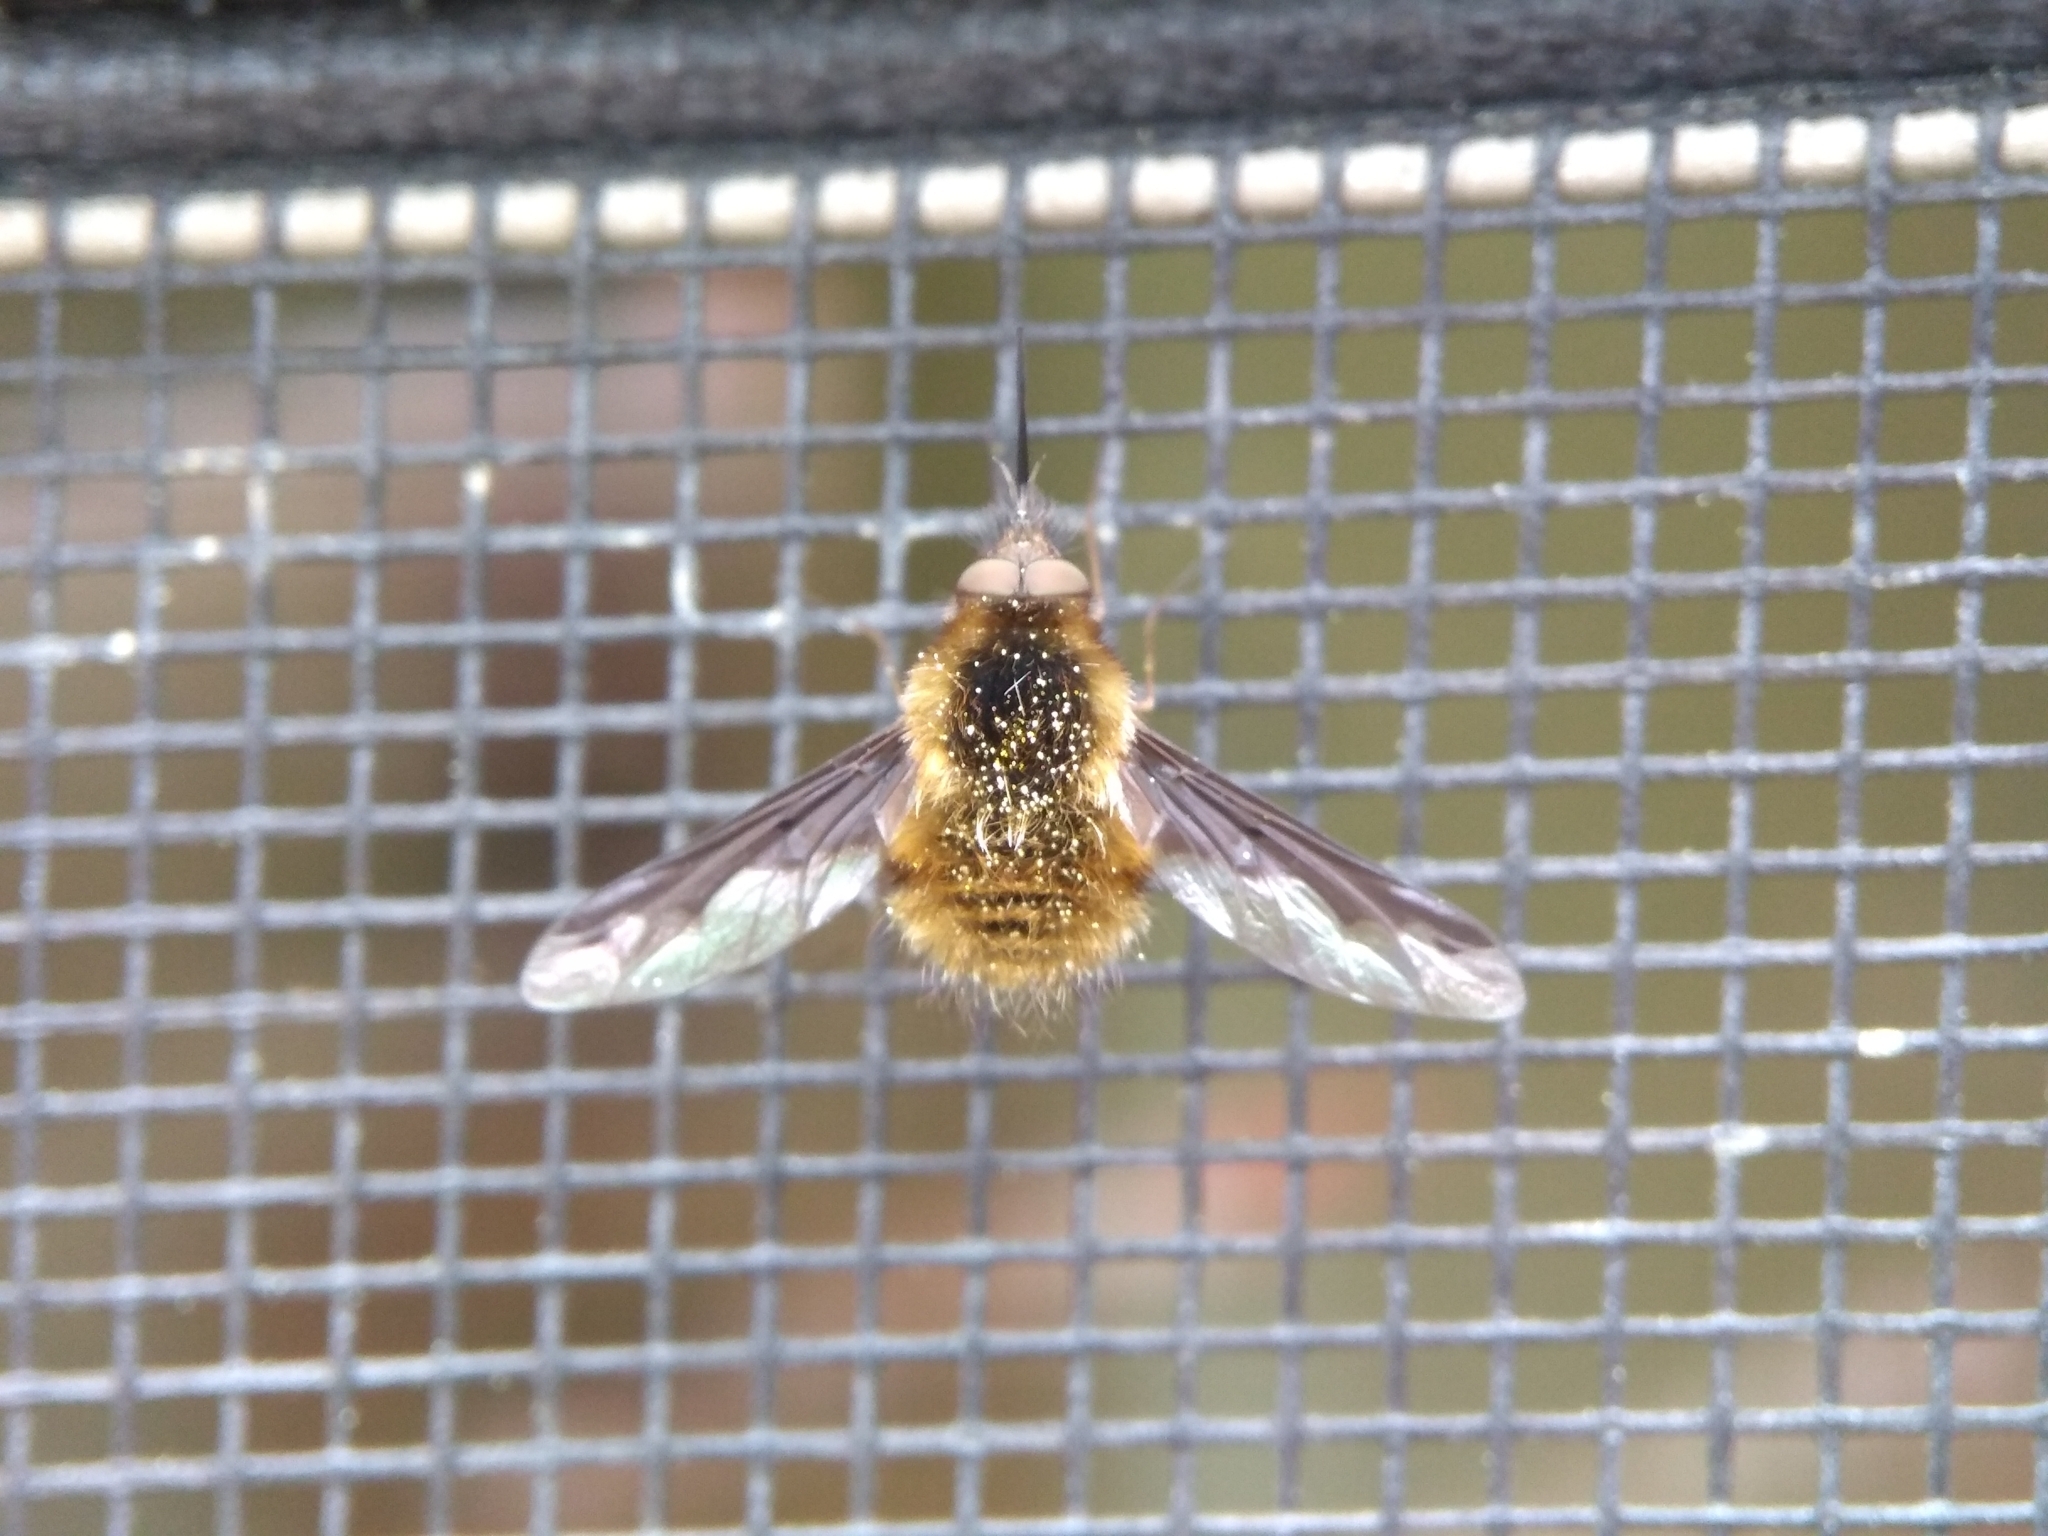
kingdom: Animalia
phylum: Arthropoda
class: Insecta
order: Diptera
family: Bombyliidae
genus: Bombylius
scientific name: Bombylius major
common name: Bee fly
